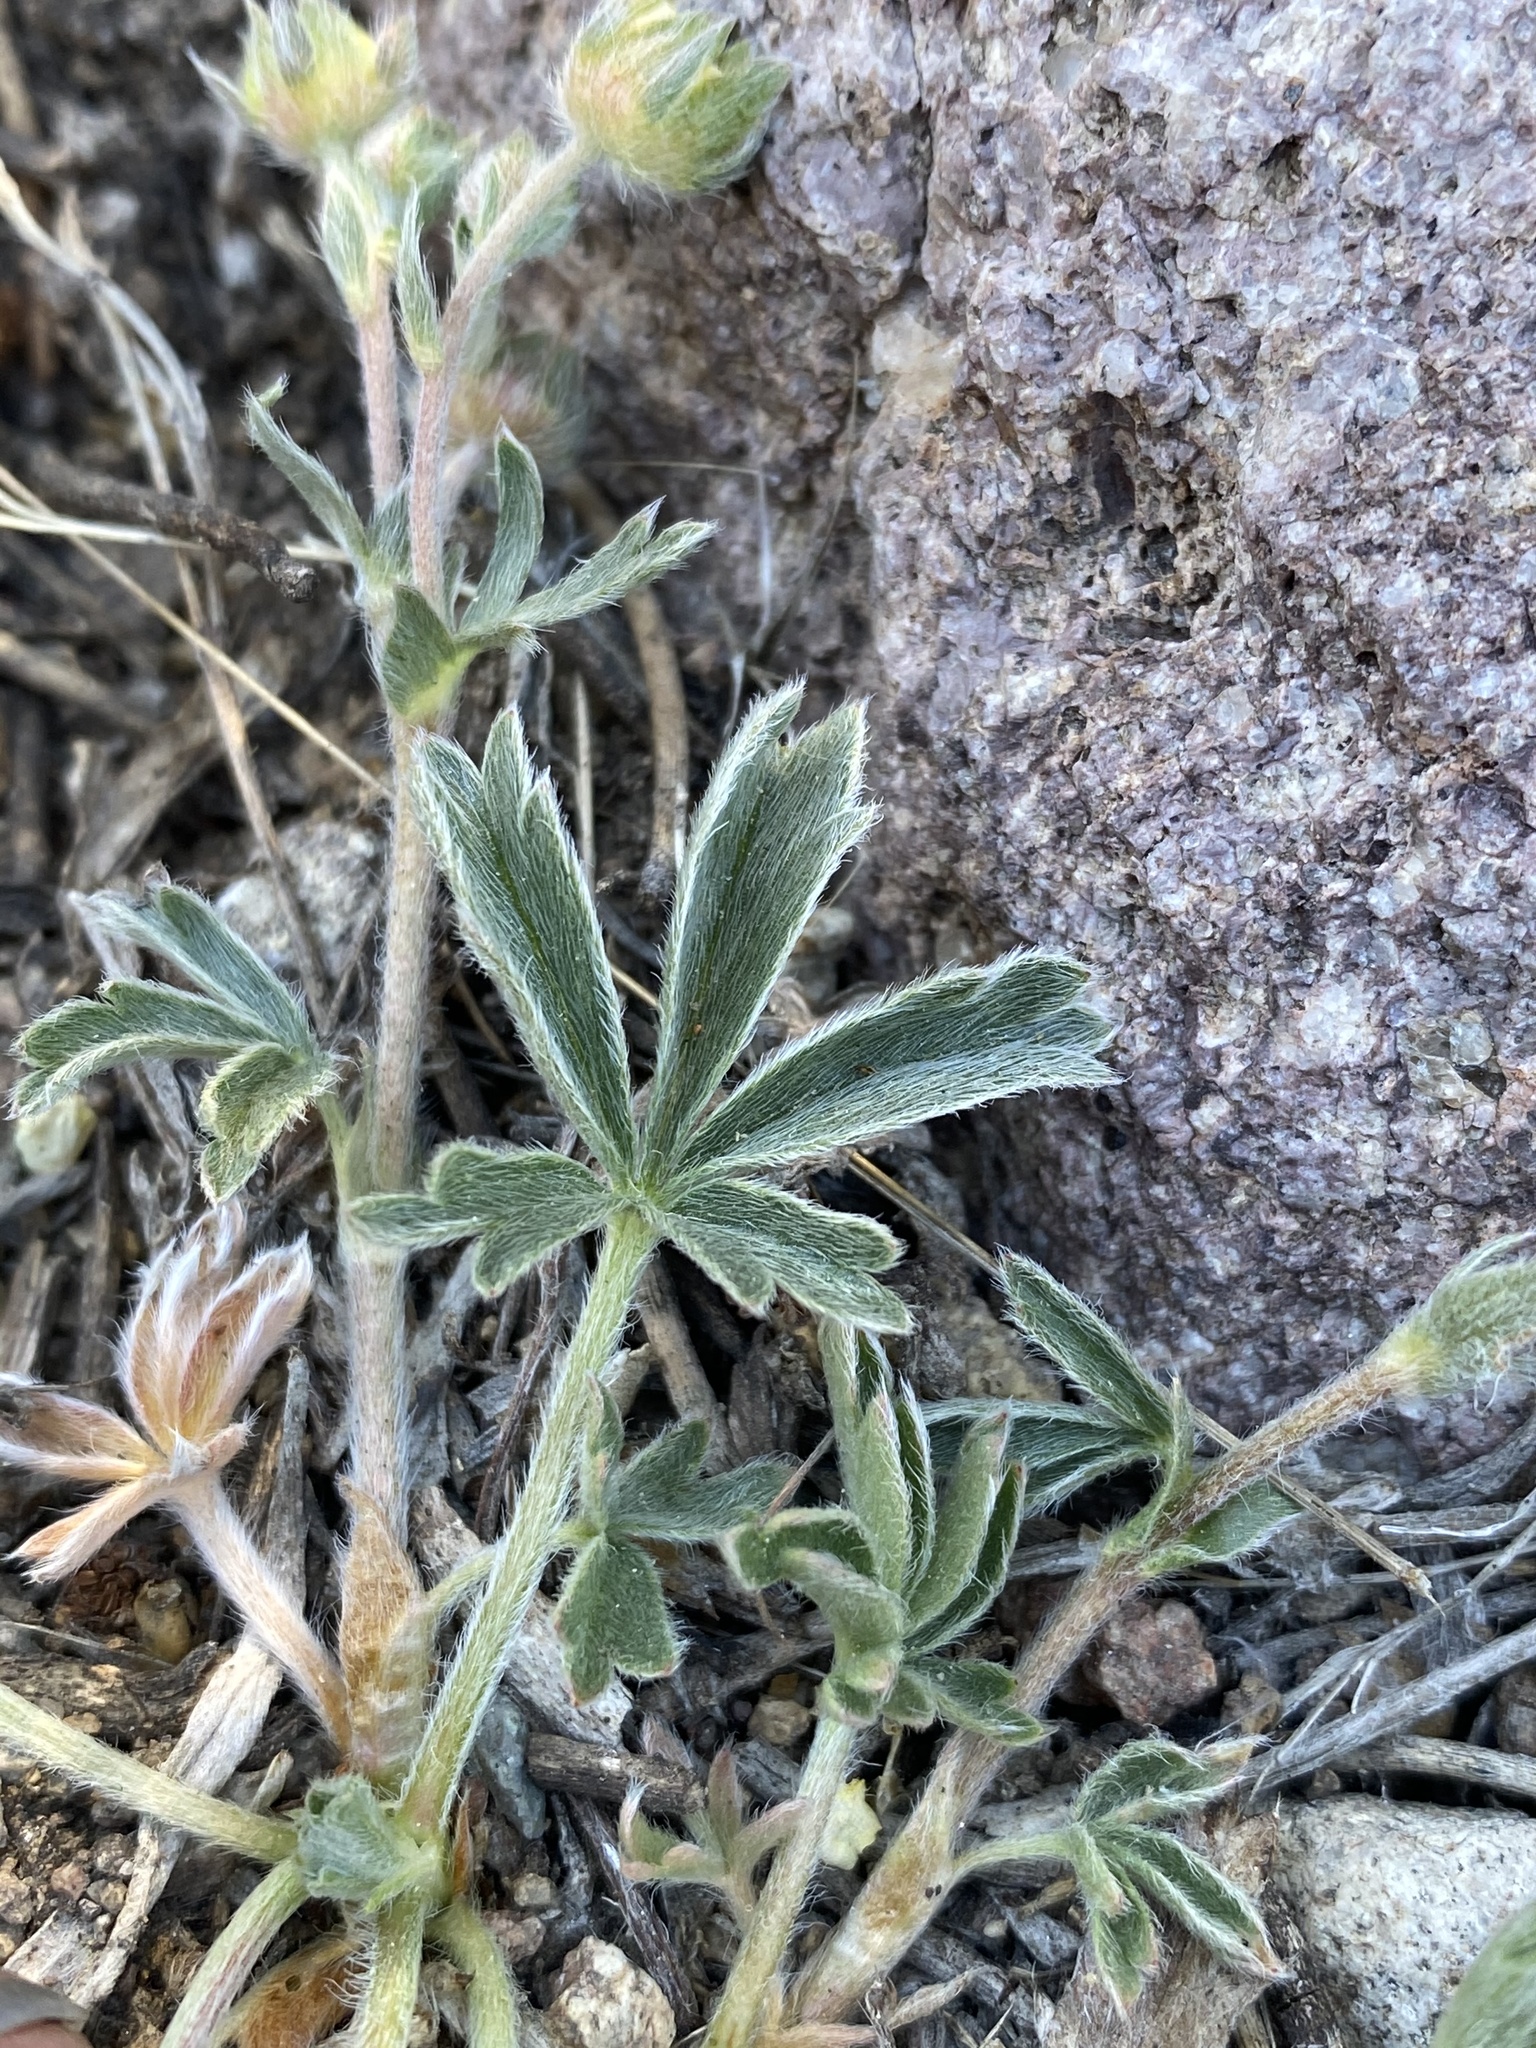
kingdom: Plantae
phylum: Tracheophyta
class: Magnoliopsida
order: Rosales
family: Rosaceae
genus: Potentilla
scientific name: Potentilla johnstonii
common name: Sagebrush cinquefoil
